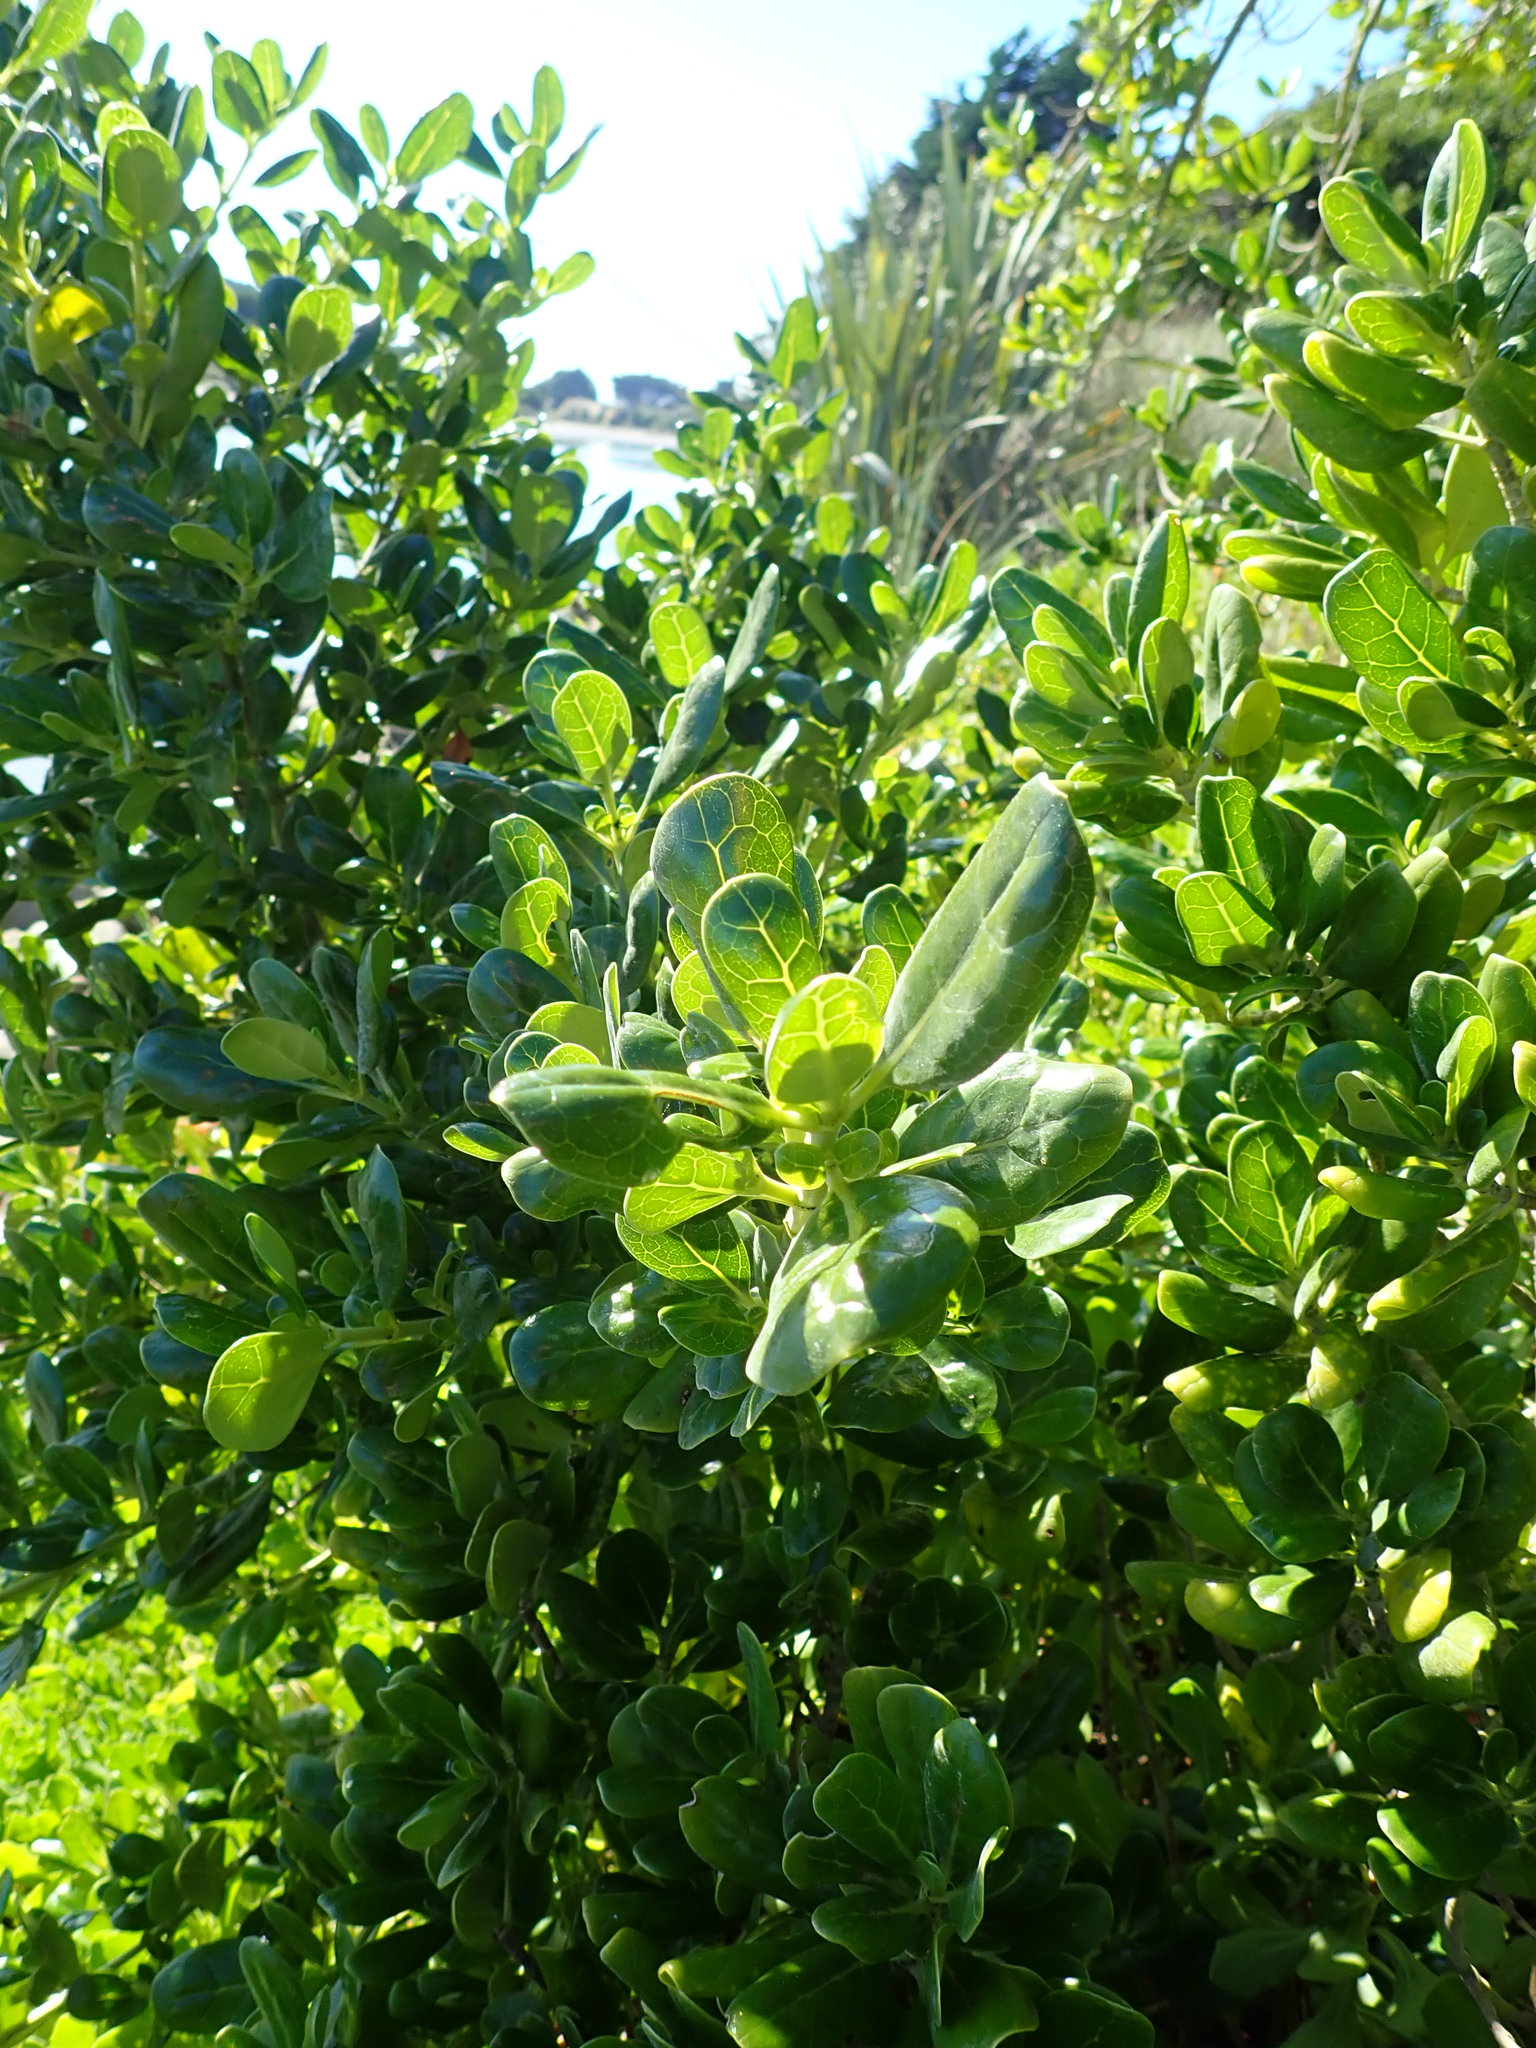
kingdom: Plantae
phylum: Tracheophyta
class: Magnoliopsida
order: Gentianales
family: Rubiaceae
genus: Coprosma
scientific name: Coprosma repens
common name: Tree bedstraw
